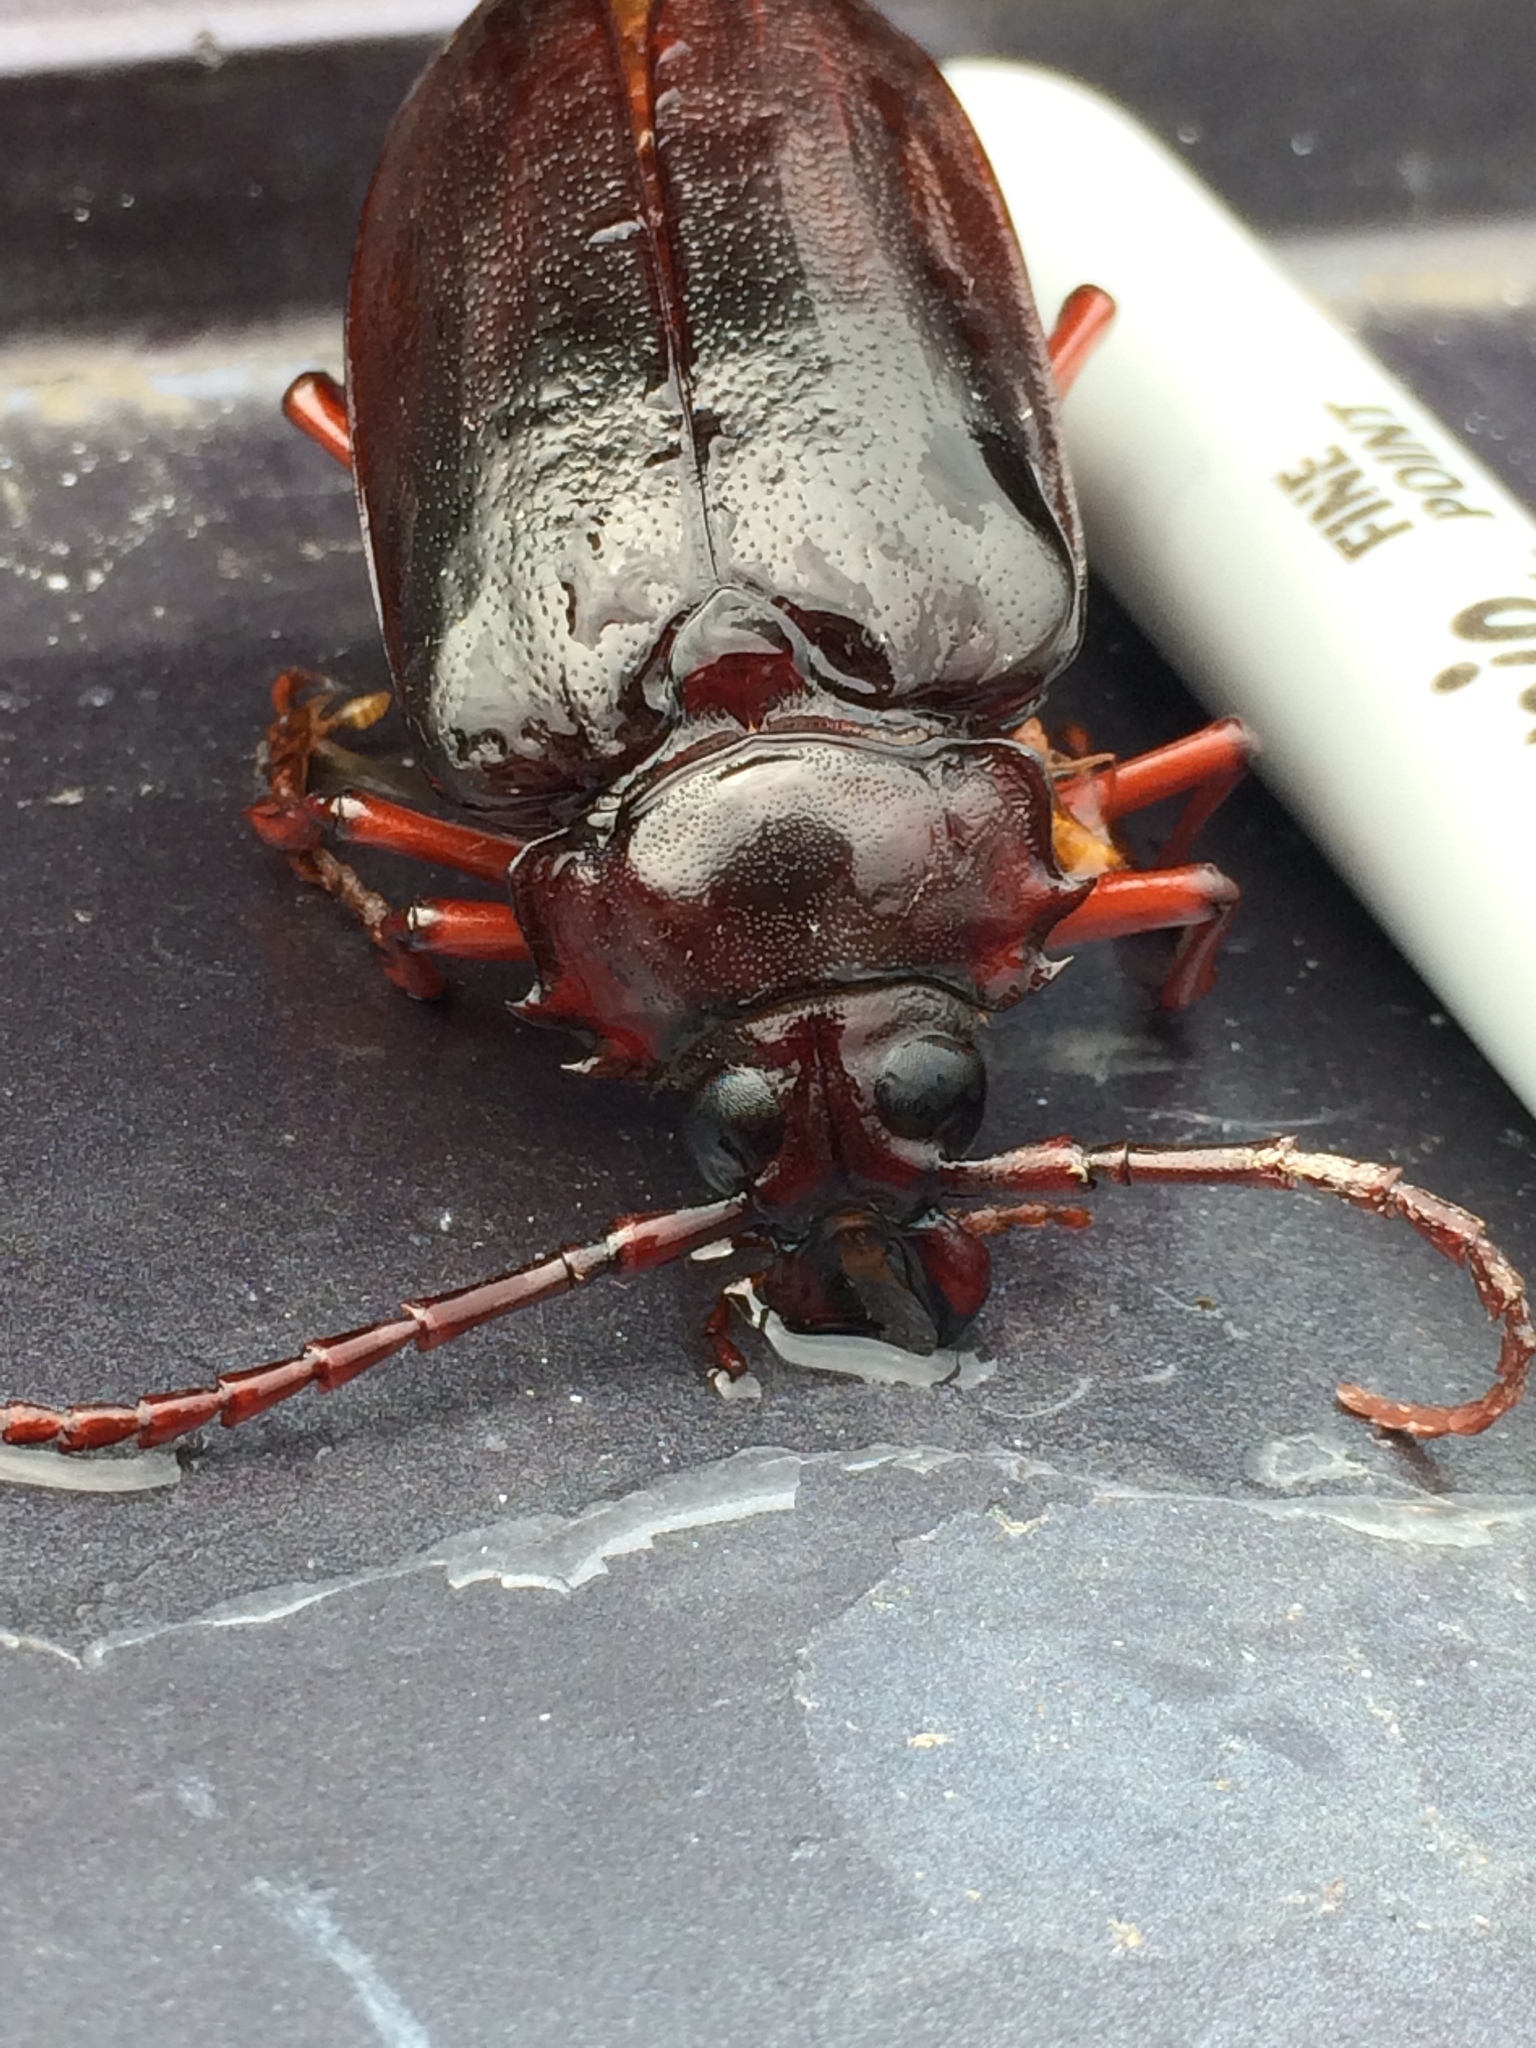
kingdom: Animalia
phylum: Arthropoda
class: Insecta
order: Coleoptera
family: Cerambycidae
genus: Prionus
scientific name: Prionus pocularis
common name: Tooth-necked longhorn beetle
